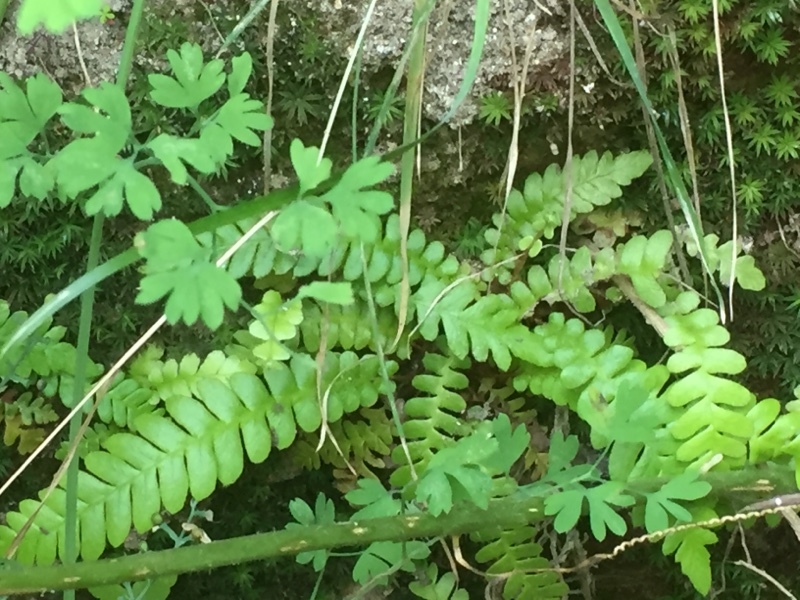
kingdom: Plantae
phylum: Tracheophyta
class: Polypodiopsida
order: Polypodiales
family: Blechnaceae
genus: Struthiopteris
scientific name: Struthiopteris spicant
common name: Deer fern
